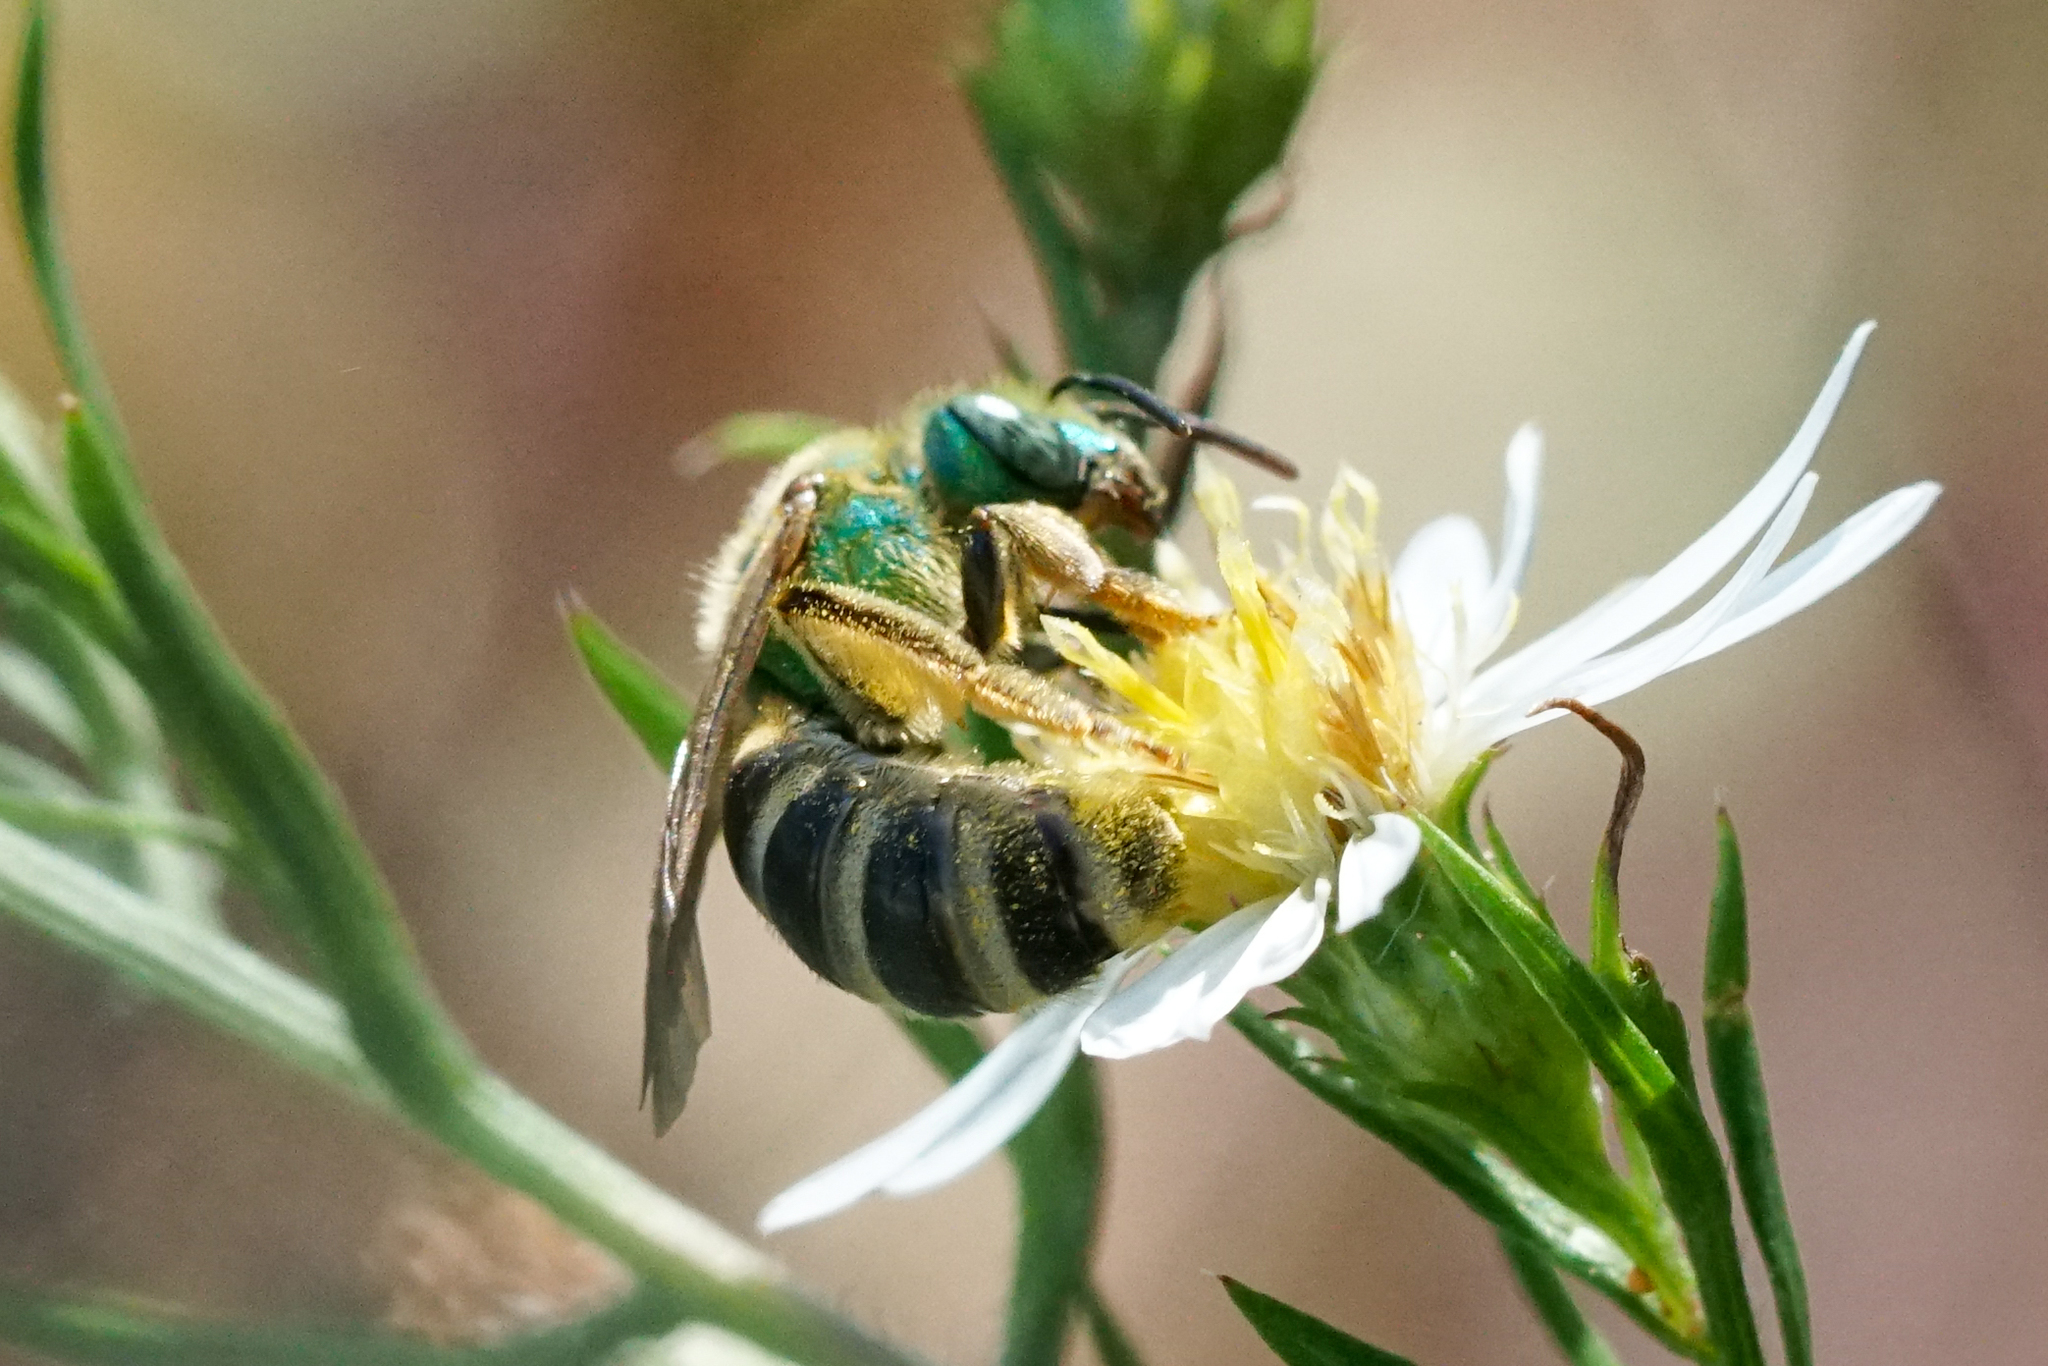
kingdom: Animalia
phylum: Arthropoda
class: Insecta
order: Hymenoptera
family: Halictidae
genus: Agapostemon
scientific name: Agapostemon virescens
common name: Bicolored striped sweat bee
